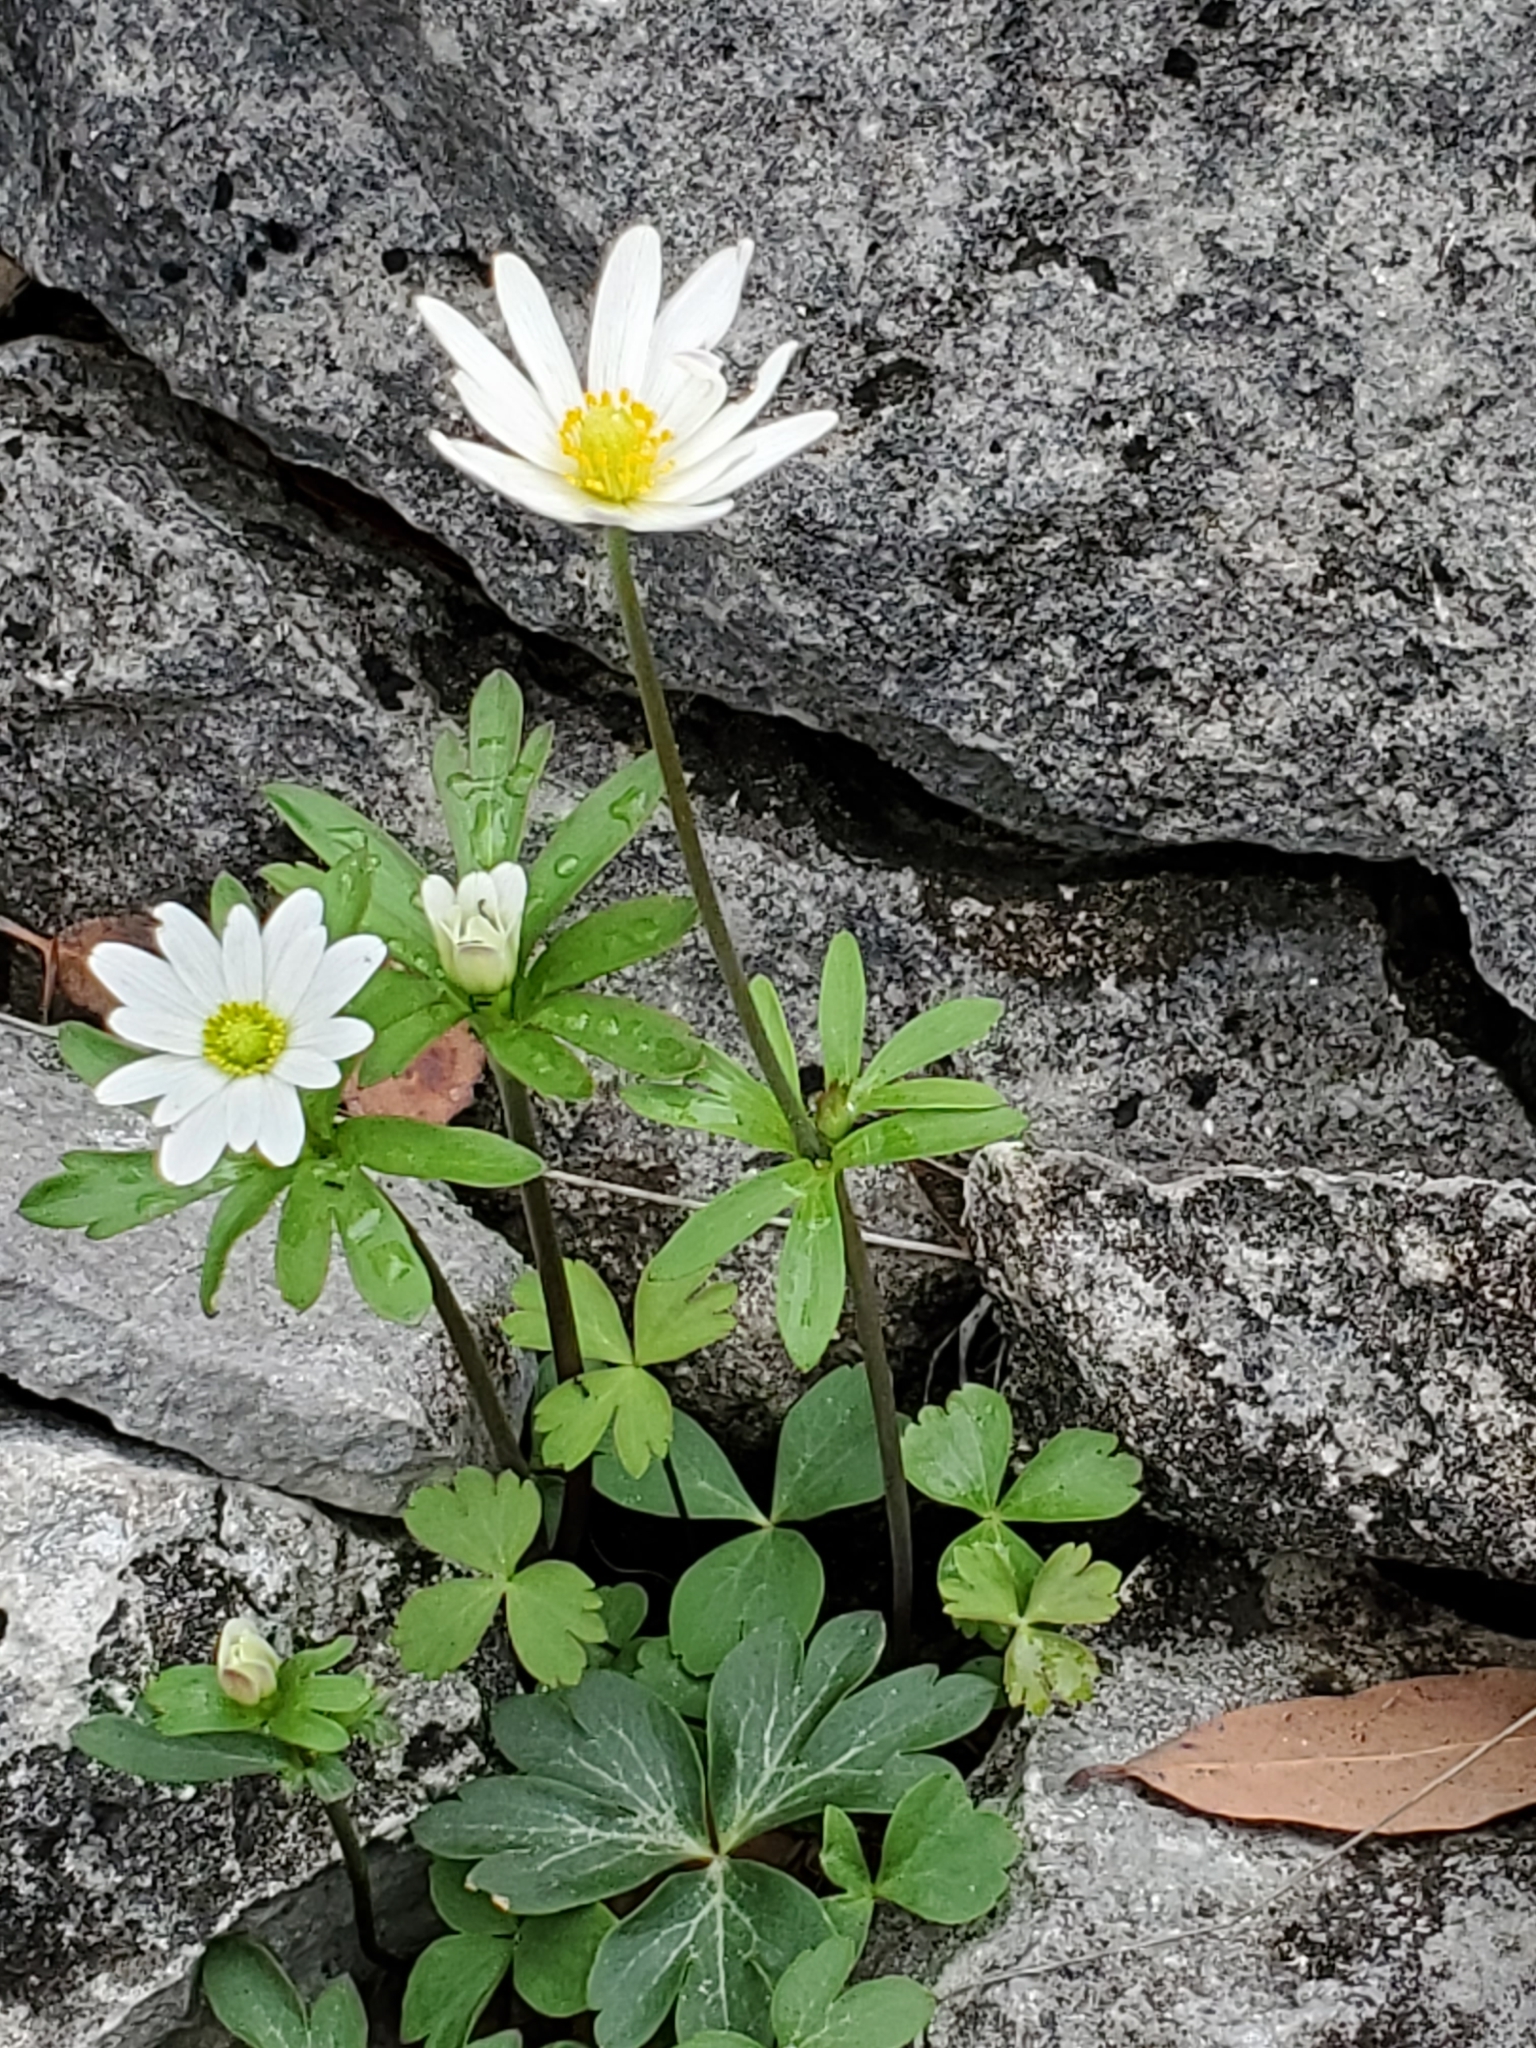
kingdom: Plantae
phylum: Tracheophyta
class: Magnoliopsida
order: Ranunculales
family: Ranunculaceae
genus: Anemone
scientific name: Anemone edwardsiana
